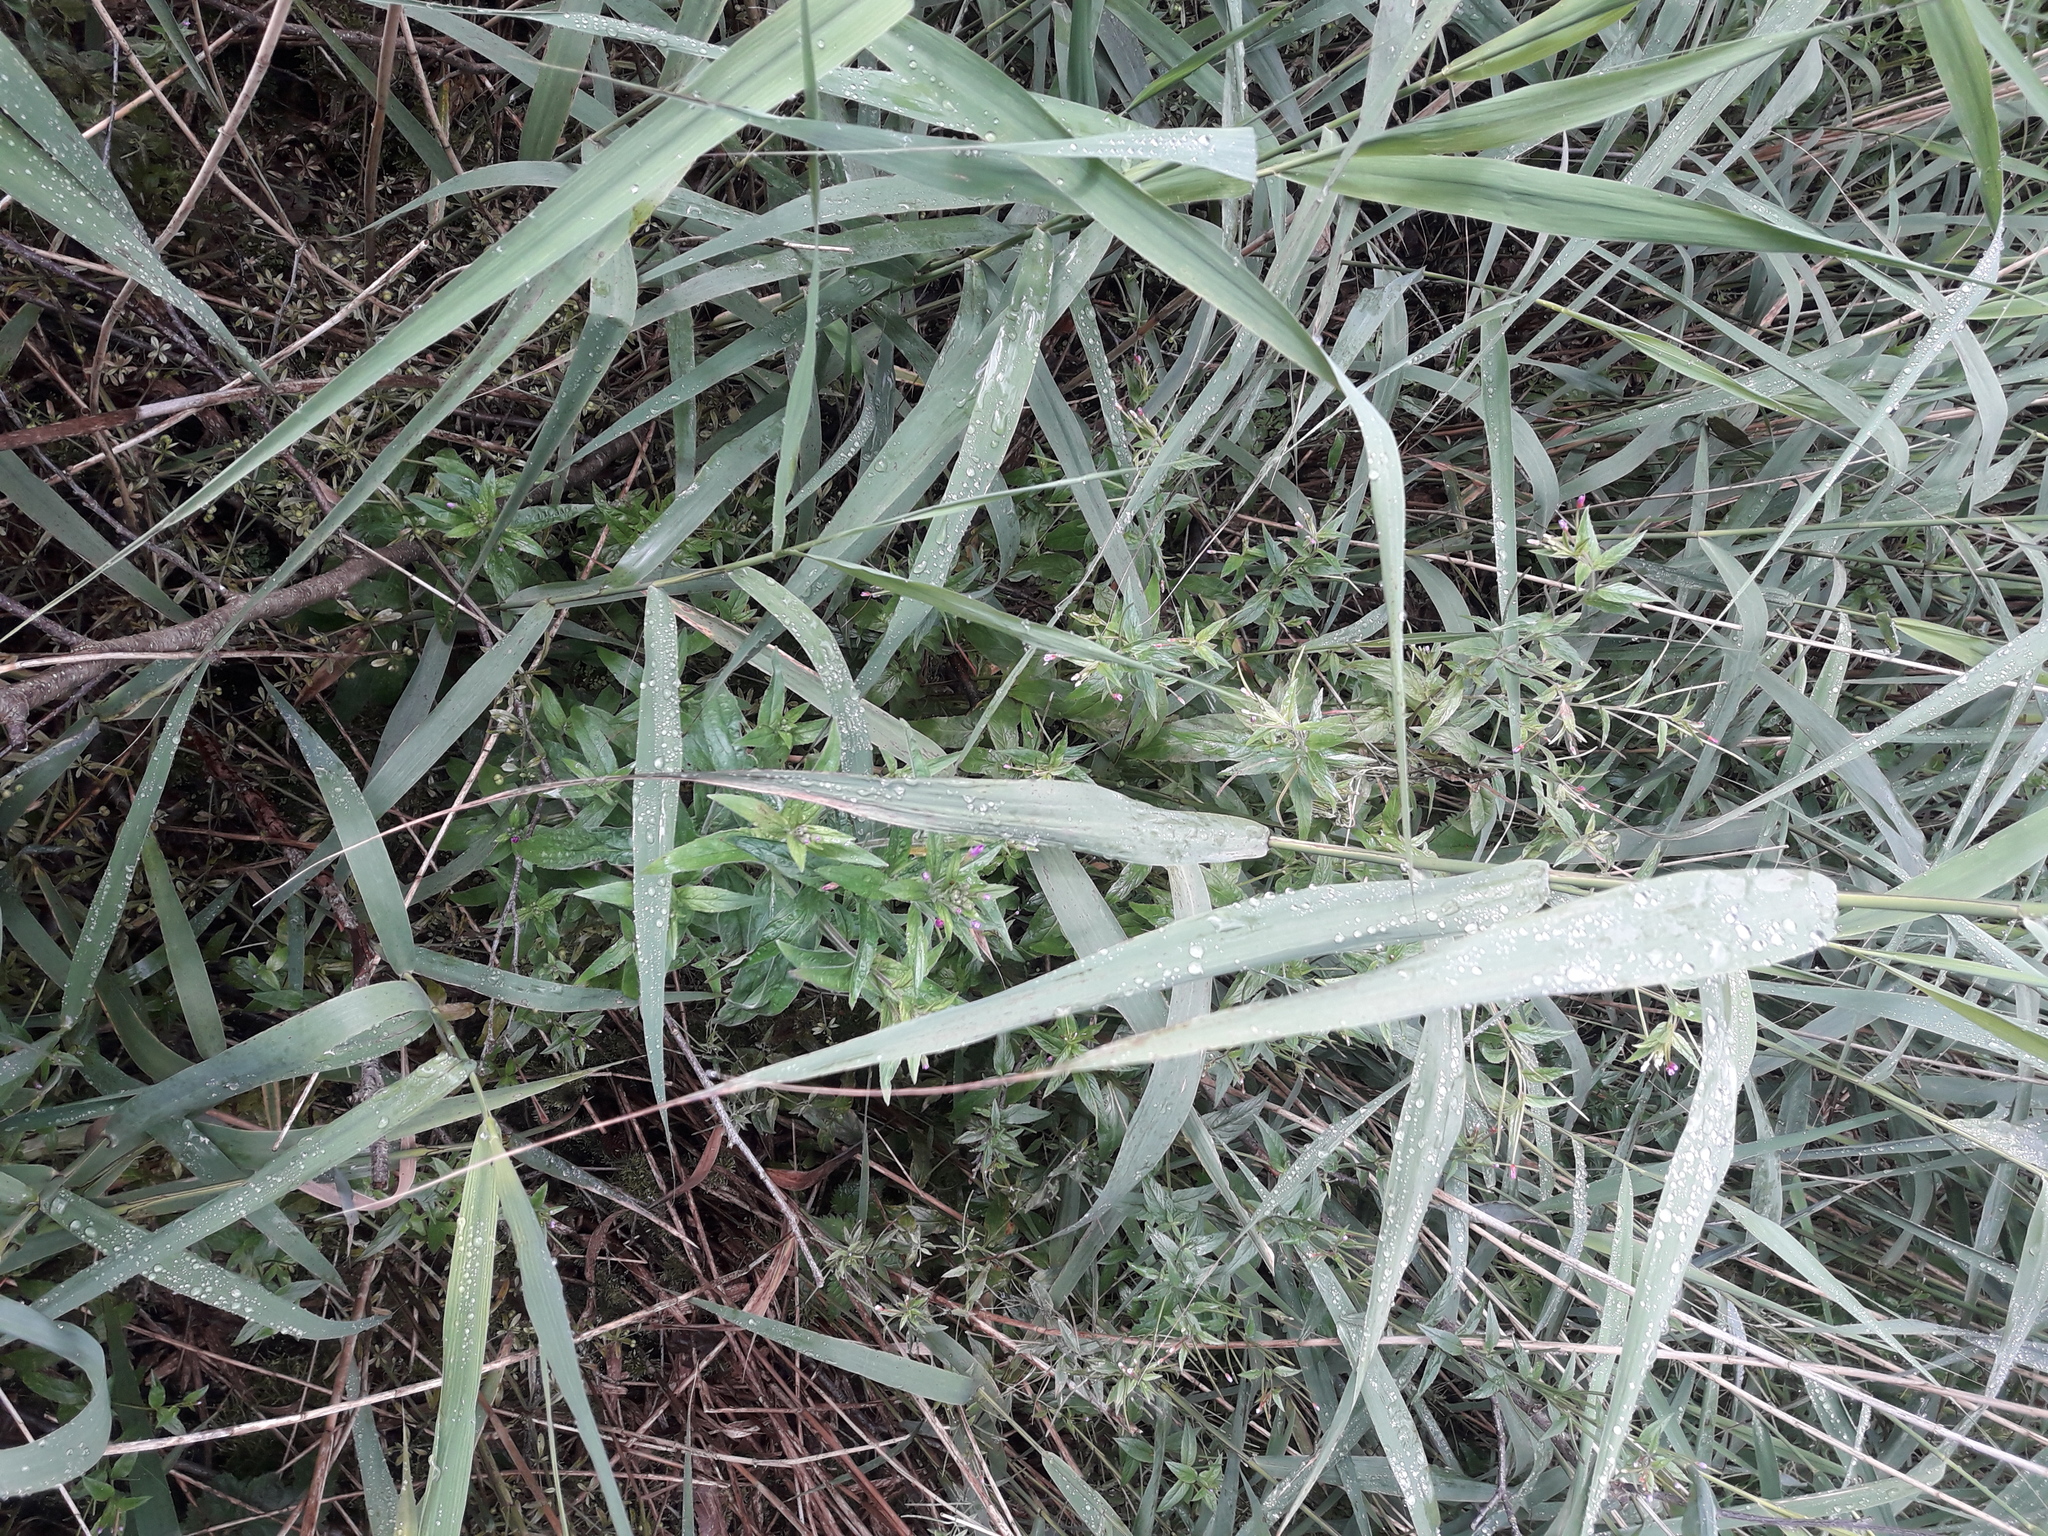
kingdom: Plantae
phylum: Tracheophyta
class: Liliopsida
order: Poales
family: Poaceae
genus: Phragmites
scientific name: Phragmites australis
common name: Common reed
